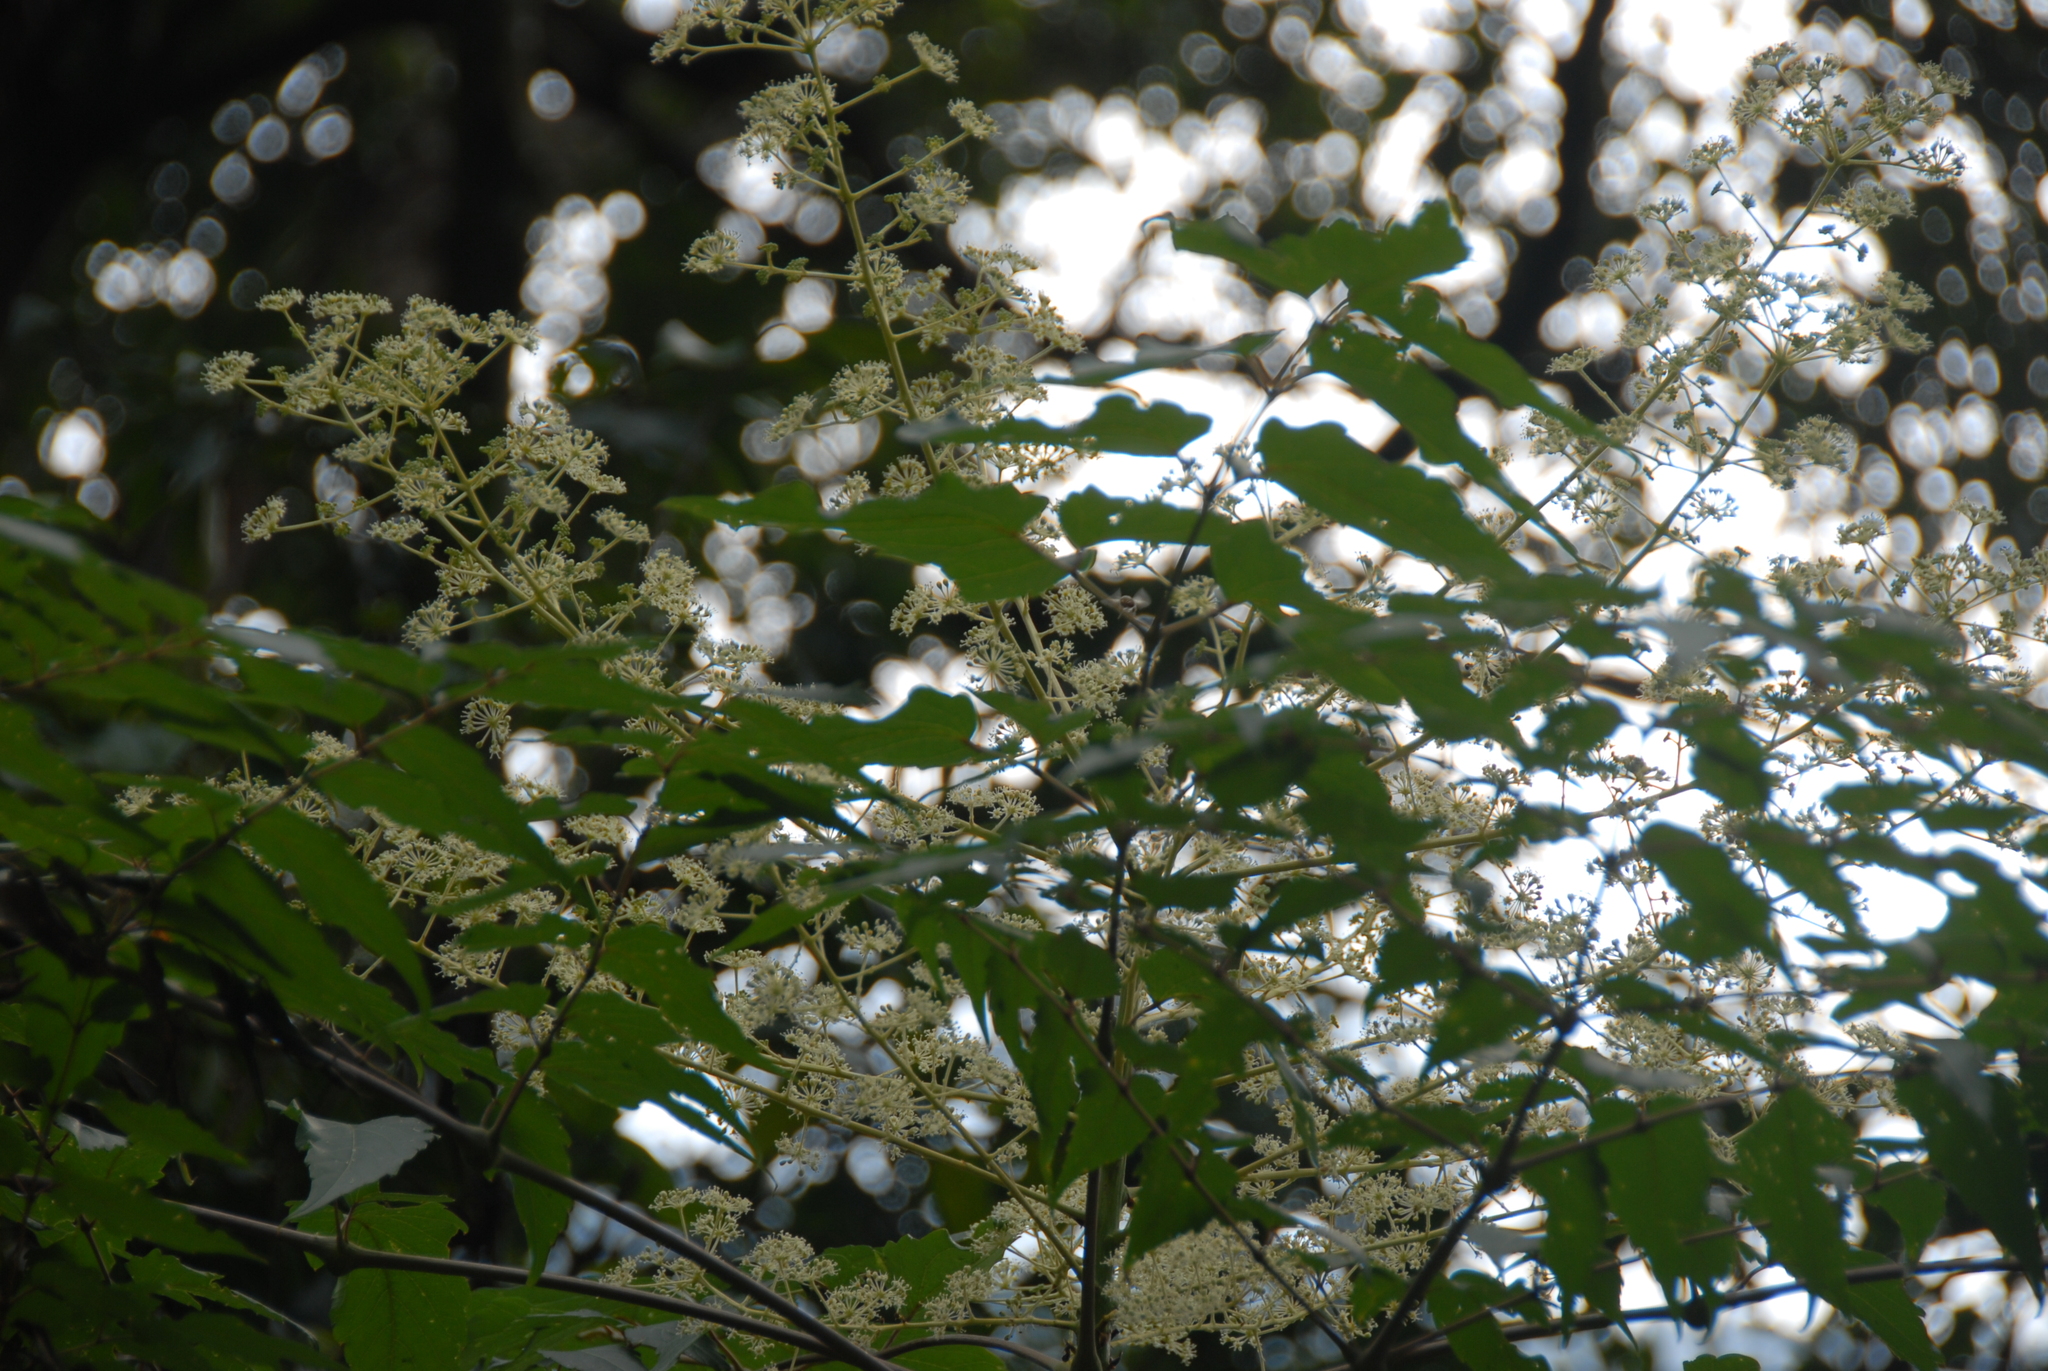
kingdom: Plantae
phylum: Tracheophyta
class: Magnoliopsida
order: Apiales
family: Araliaceae
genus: Aralia
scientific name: Aralia bipinnata
